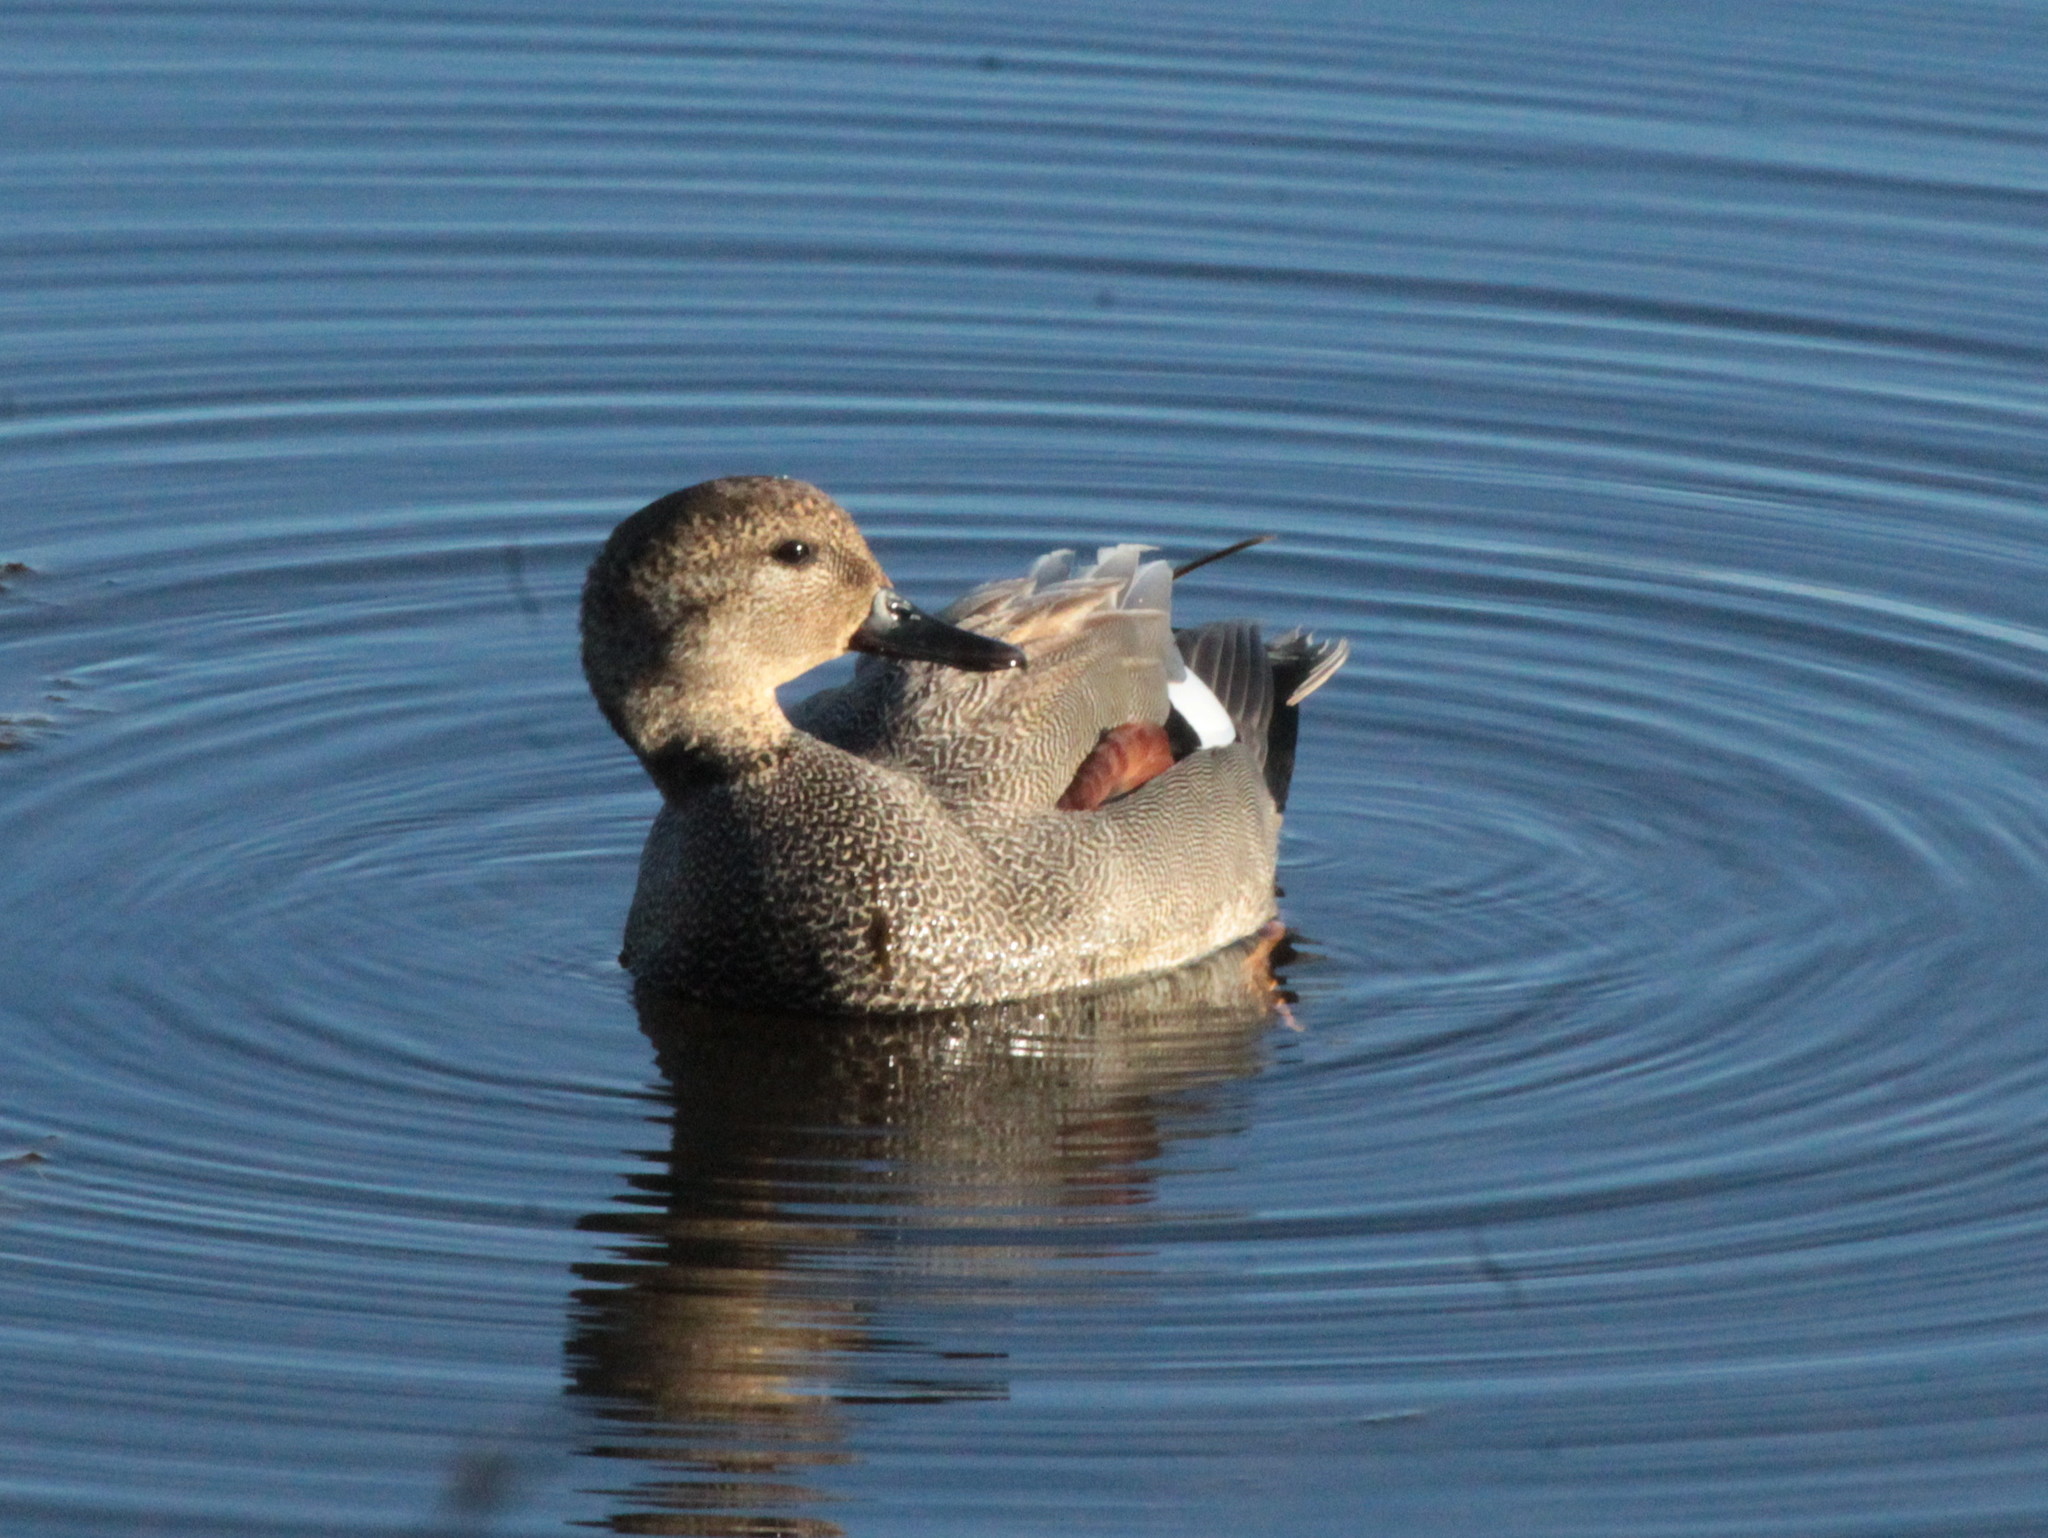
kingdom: Animalia
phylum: Chordata
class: Aves
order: Anseriformes
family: Anatidae
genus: Mareca
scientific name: Mareca strepera
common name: Gadwall
